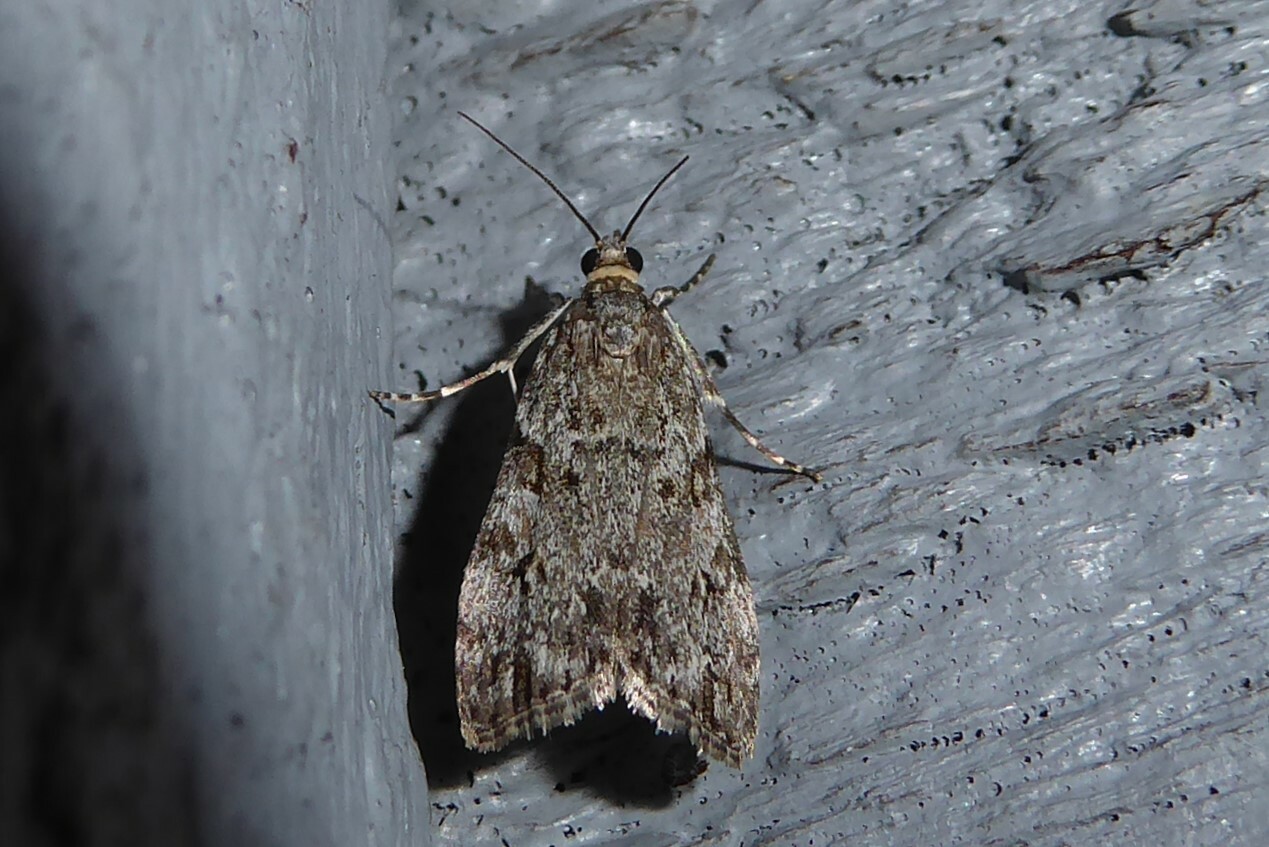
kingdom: Animalia
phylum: Arthropoda
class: Insecta
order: Lepidoptera
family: Crambidae
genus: Eudonia
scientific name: Eudonia cymatias
